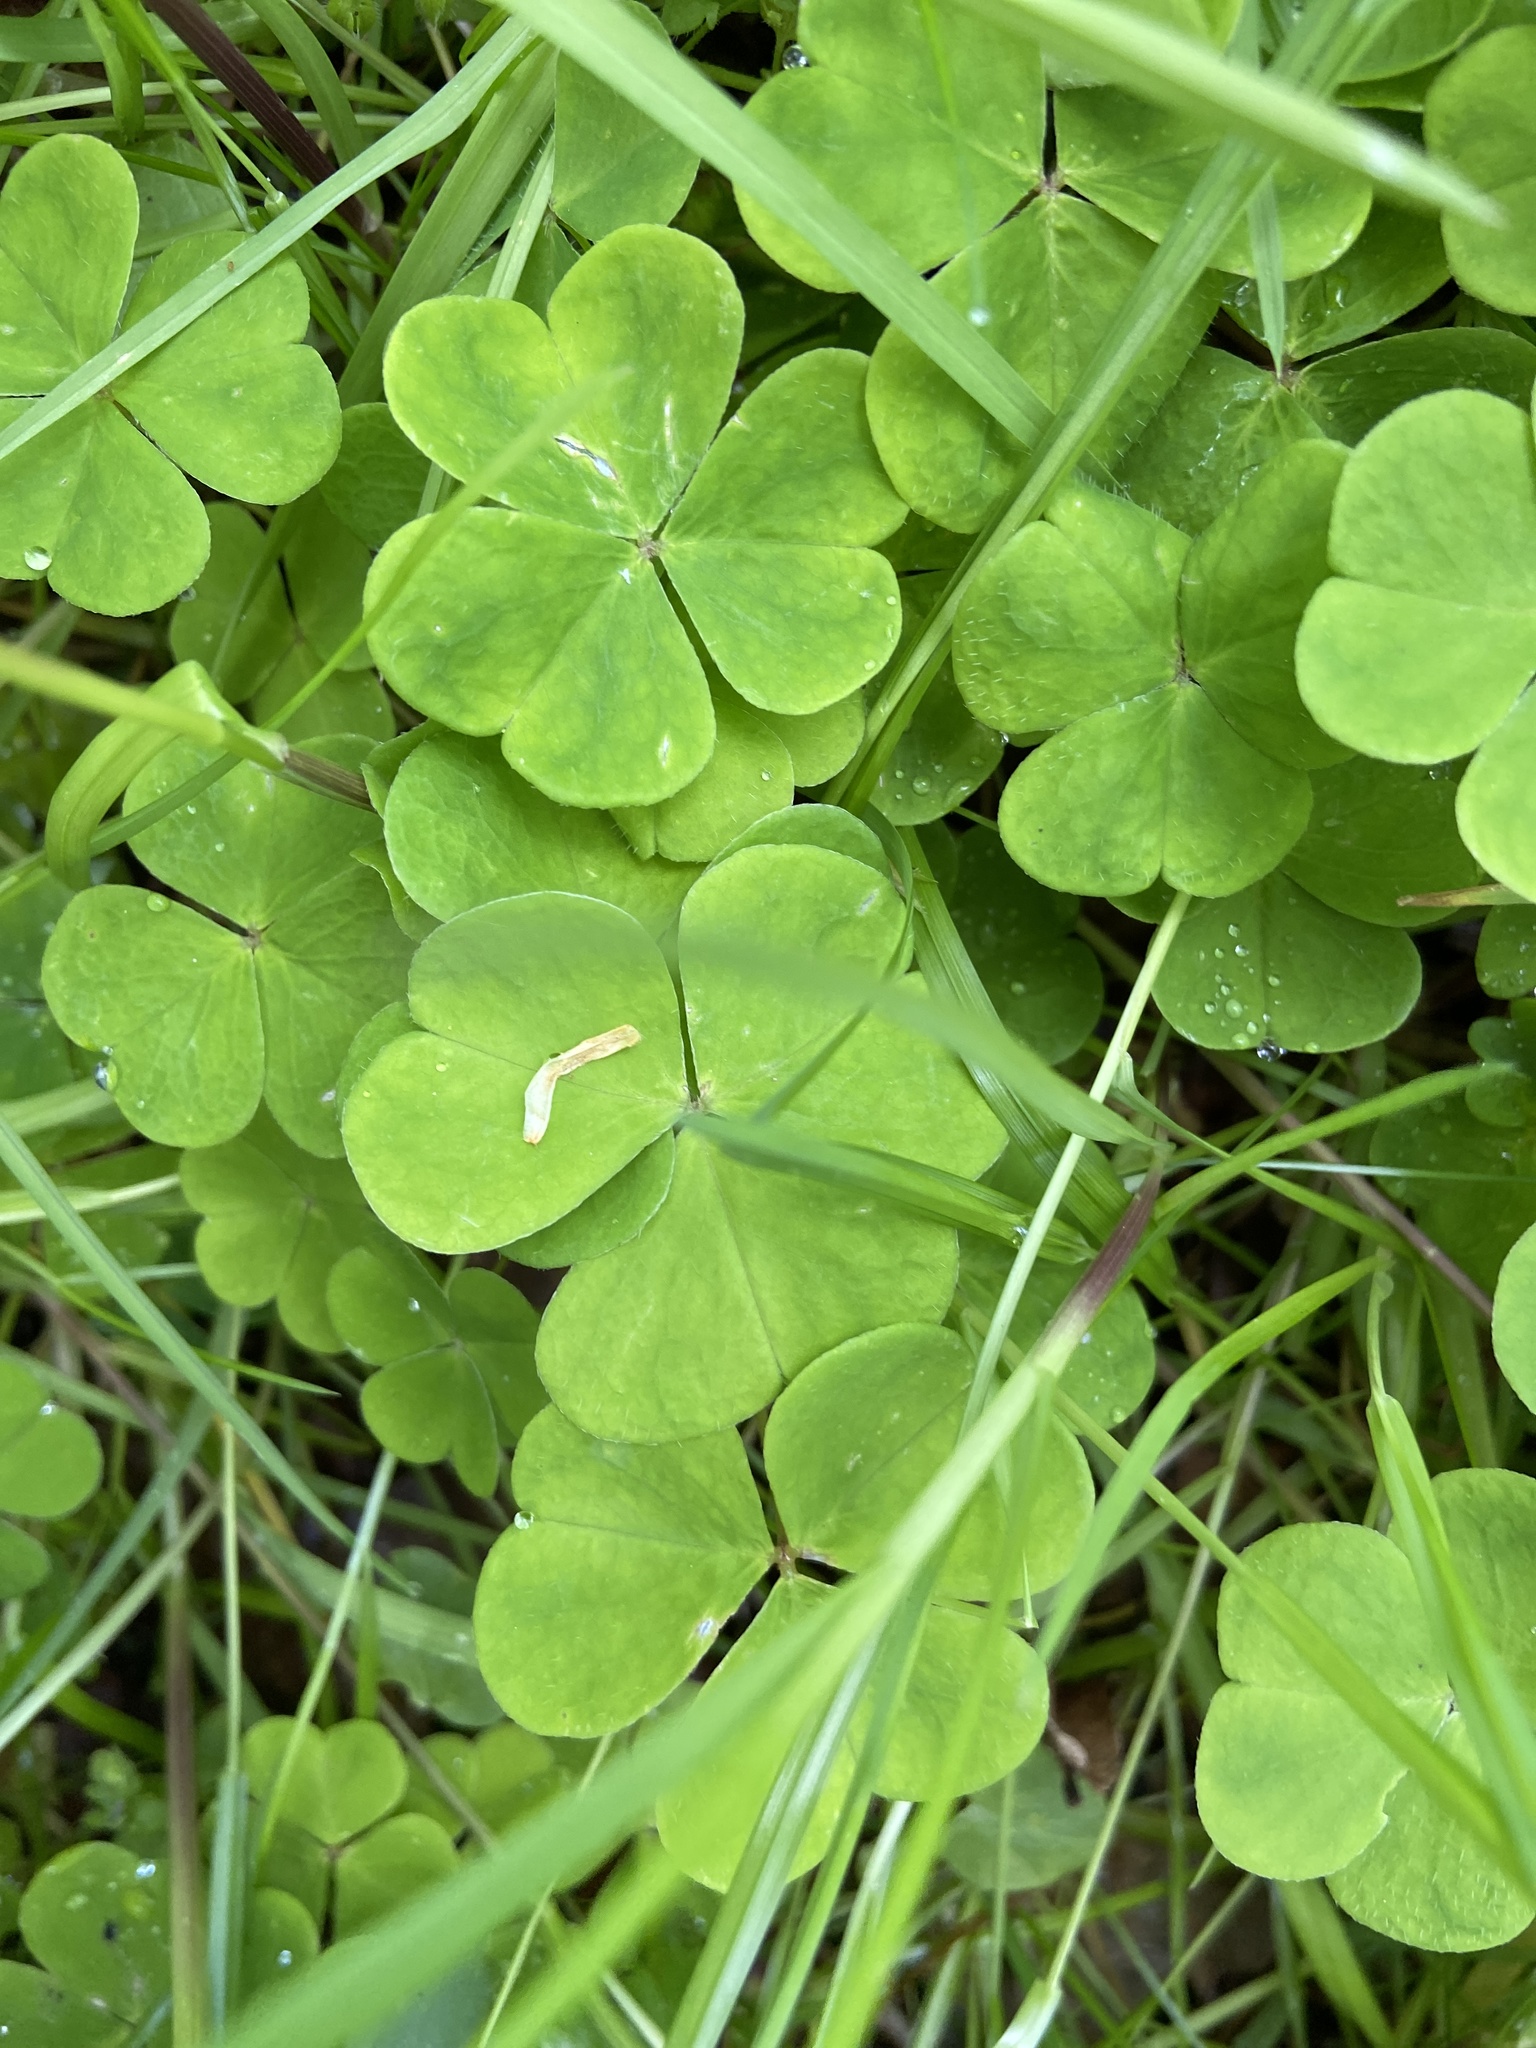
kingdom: Plantae
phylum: Tracheophyta
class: Magnoliopsida
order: Oxalidales
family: Oxalidaceae
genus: Oxalis
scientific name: Oxalis acetosella
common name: Wood-sorrel
